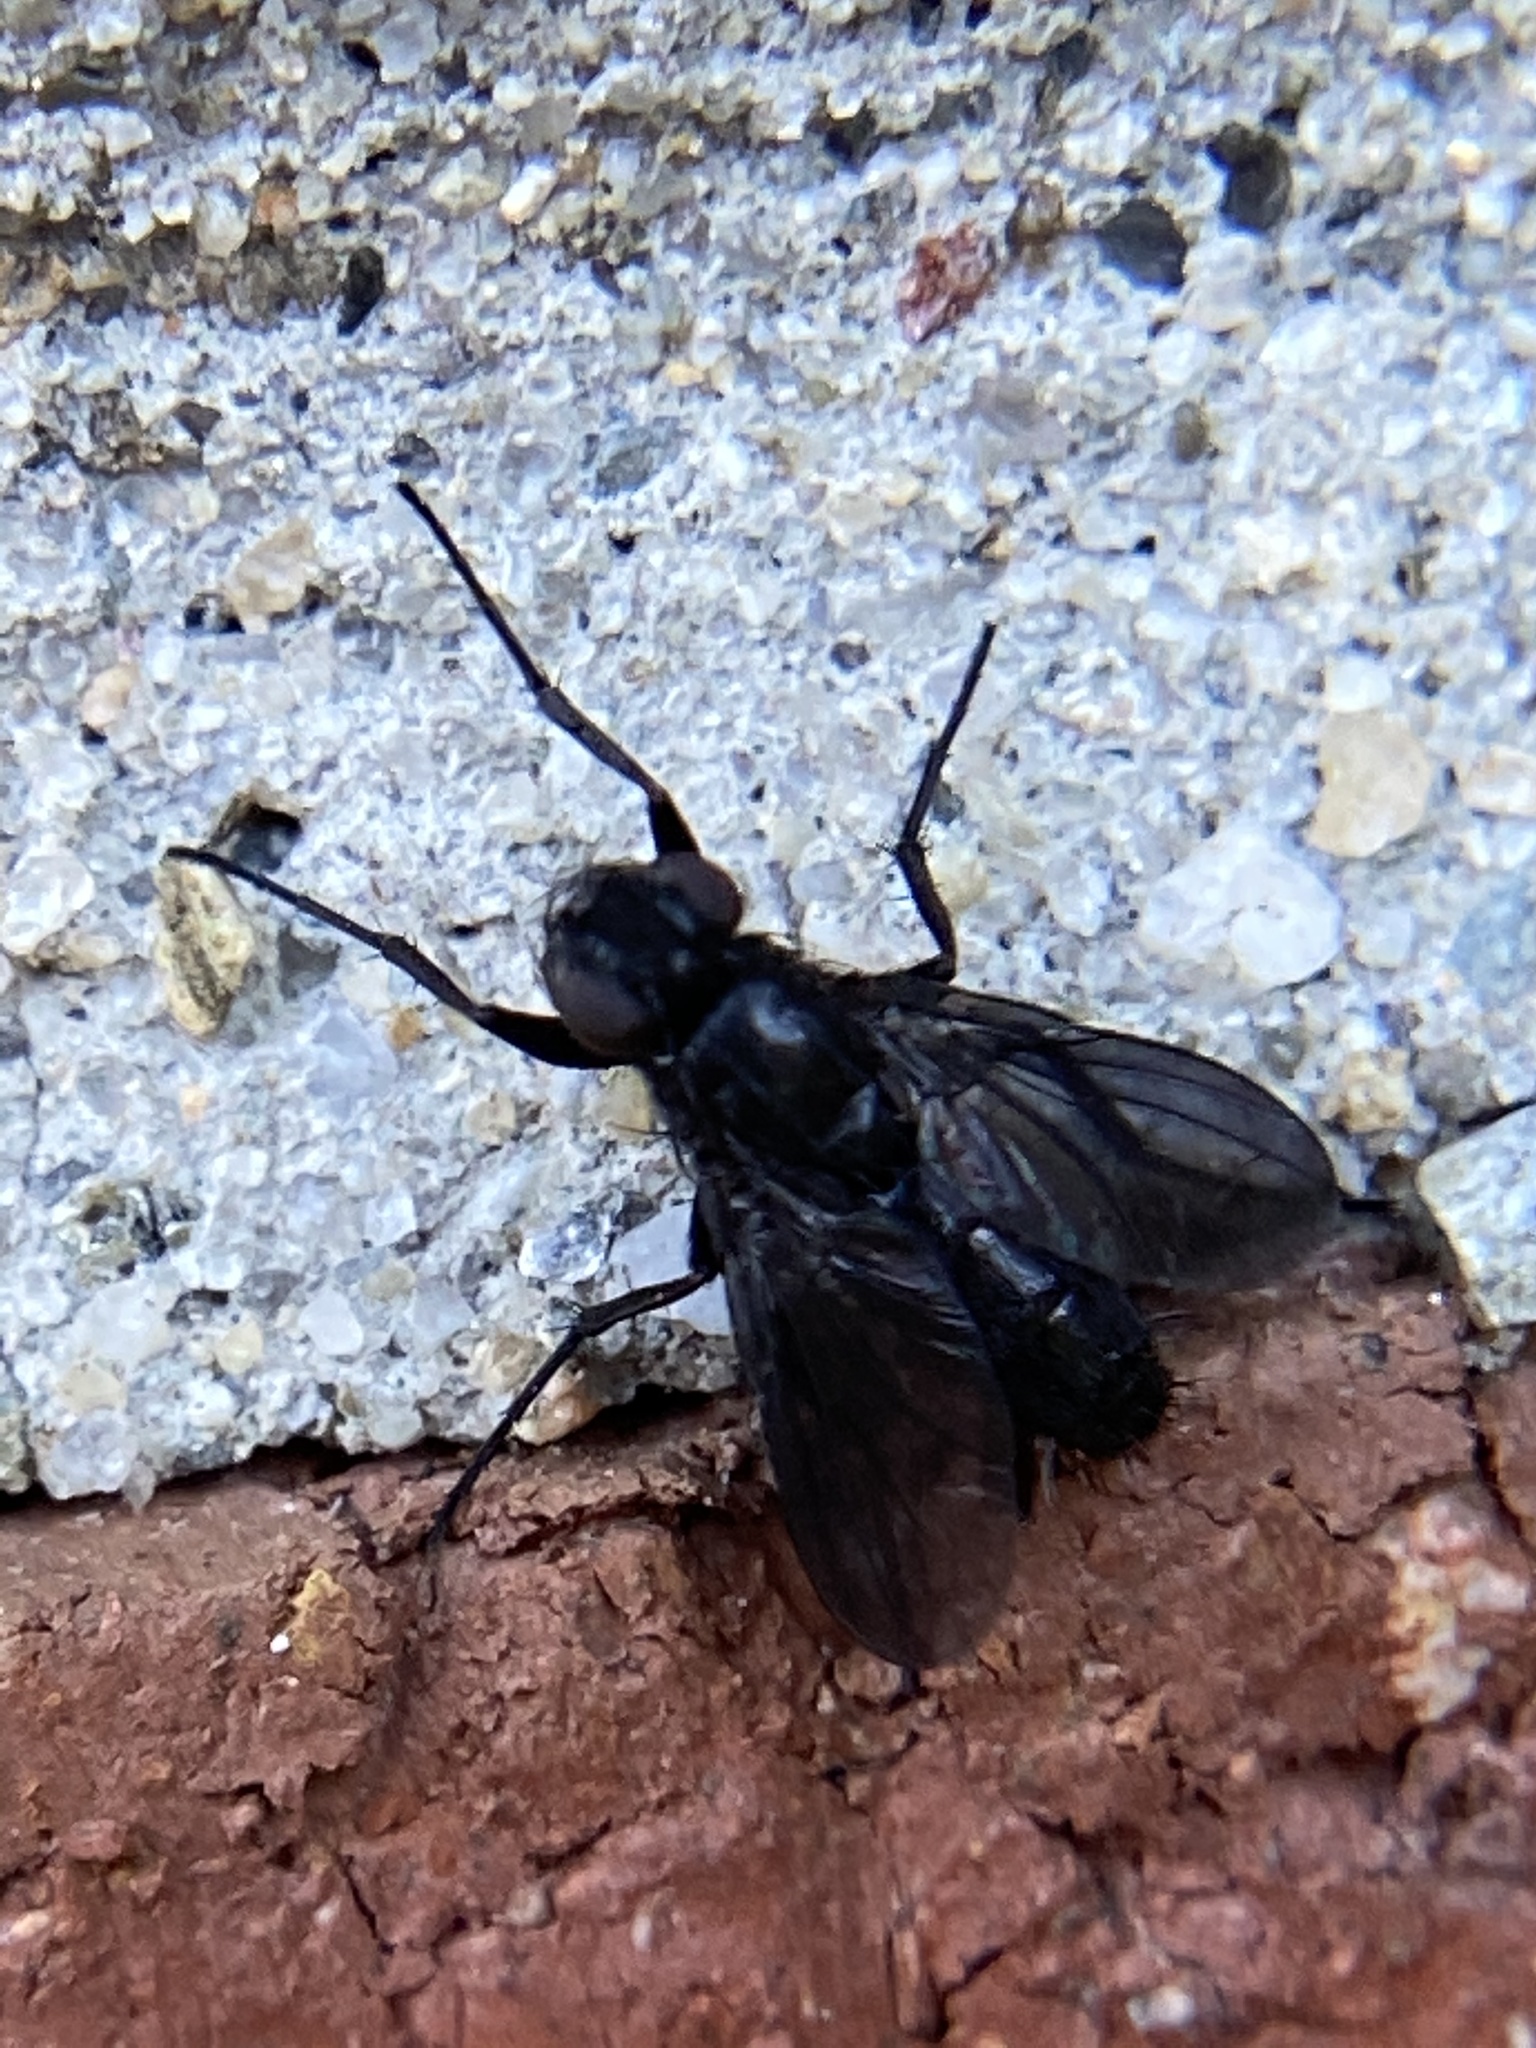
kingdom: Animalia
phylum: Arthropoda
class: Insecta
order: Diptera
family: Calliphoridae
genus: Melanophora
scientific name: Melanophora roralis
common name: Smoky-winged woodlouse-fly
